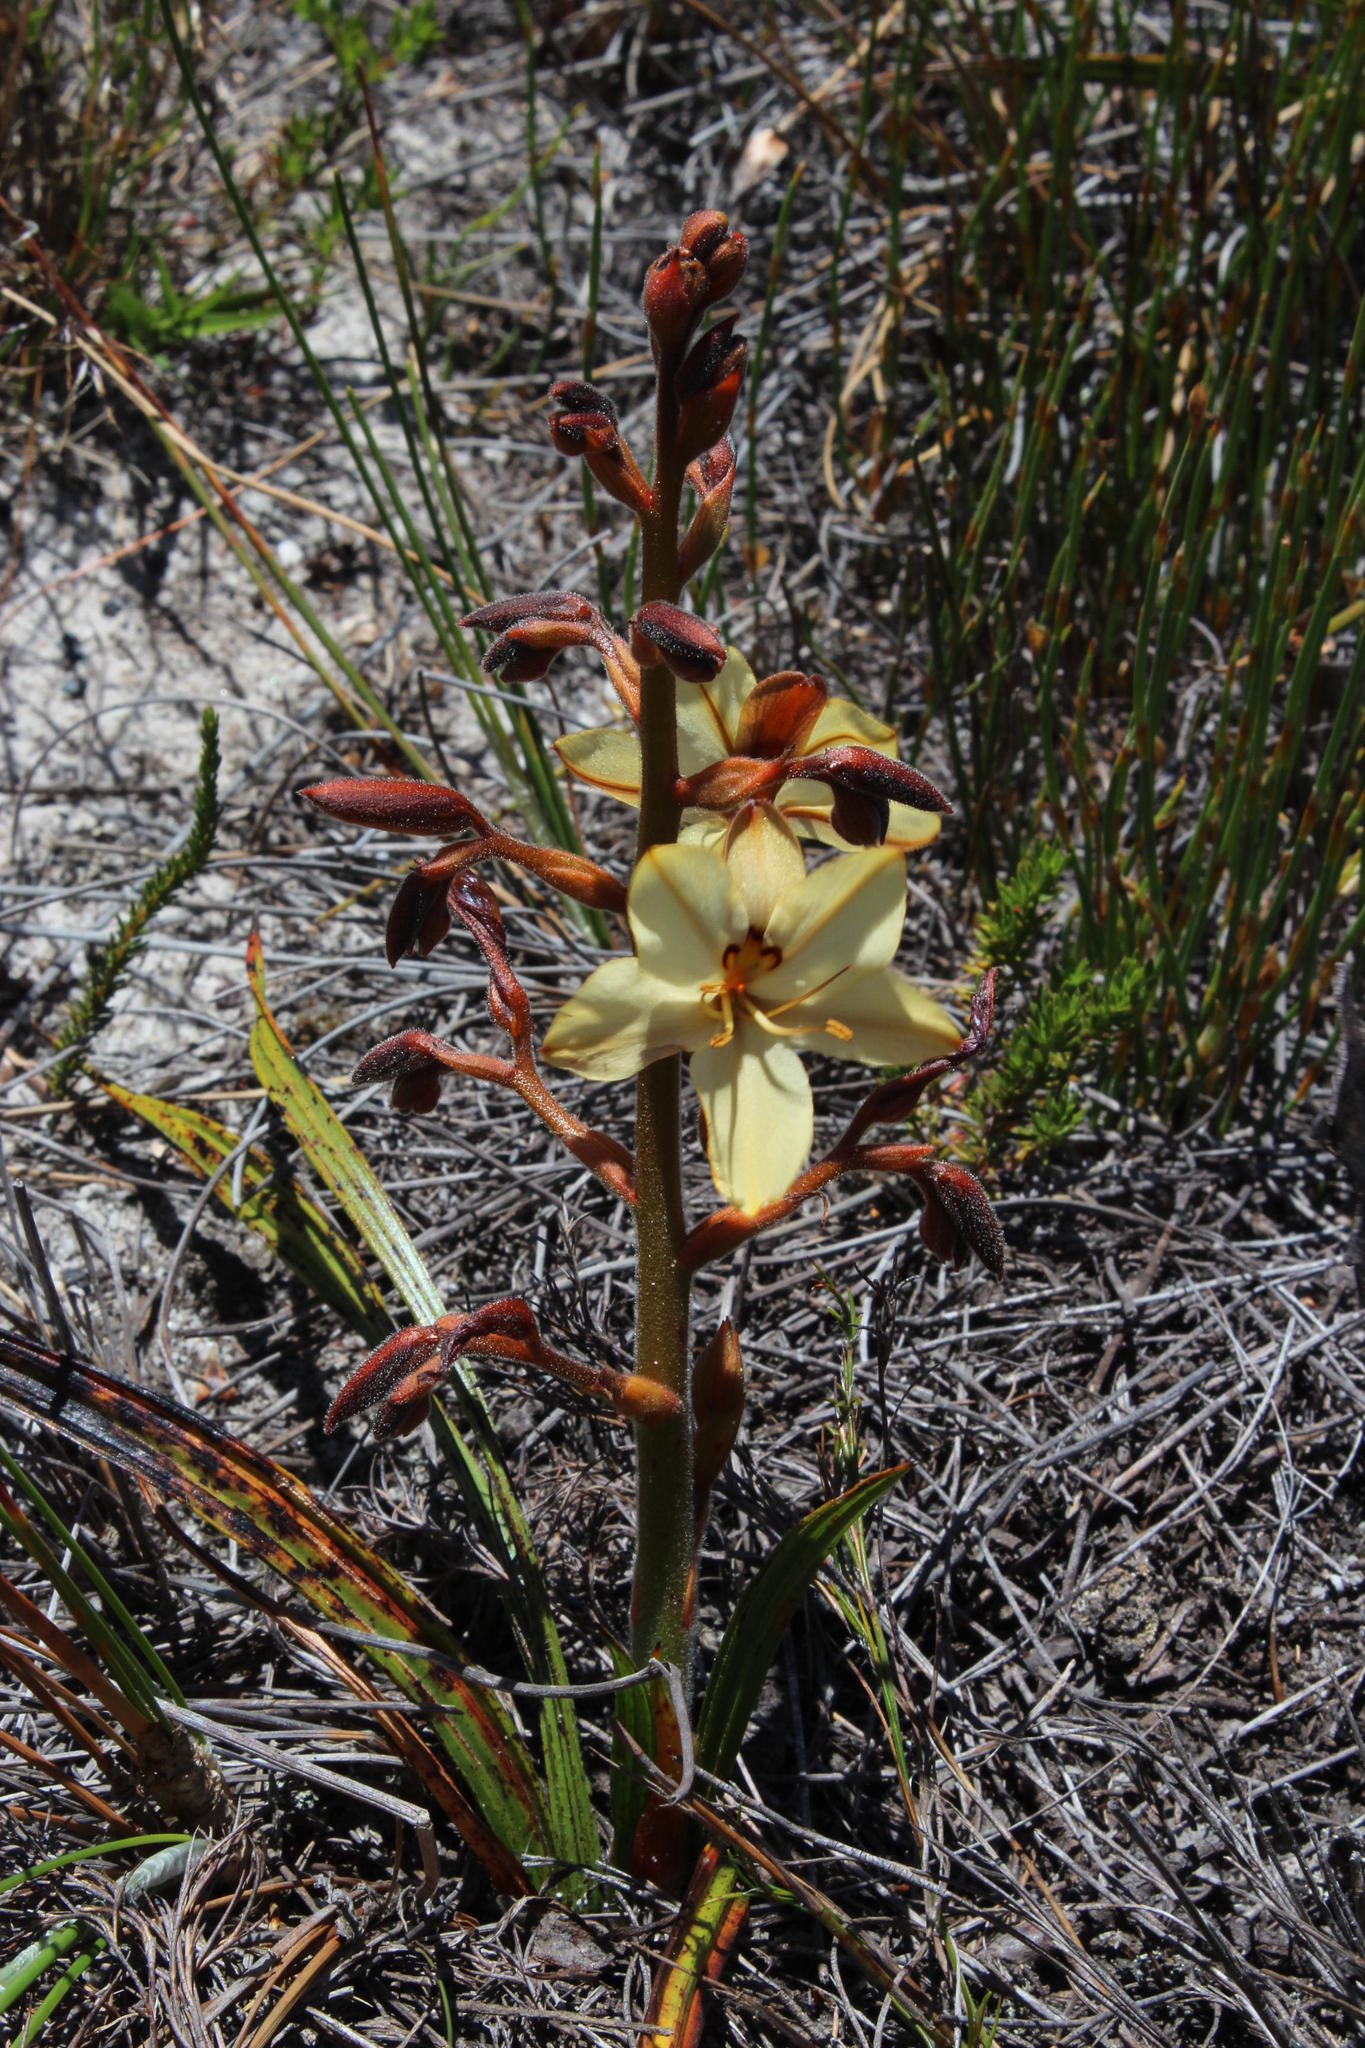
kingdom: Plantae
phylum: Tracheophyta
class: Liliopsida
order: Commelinales
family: Haemodoraceae
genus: Wachendorfia
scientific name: Wachendorfia paniculata
